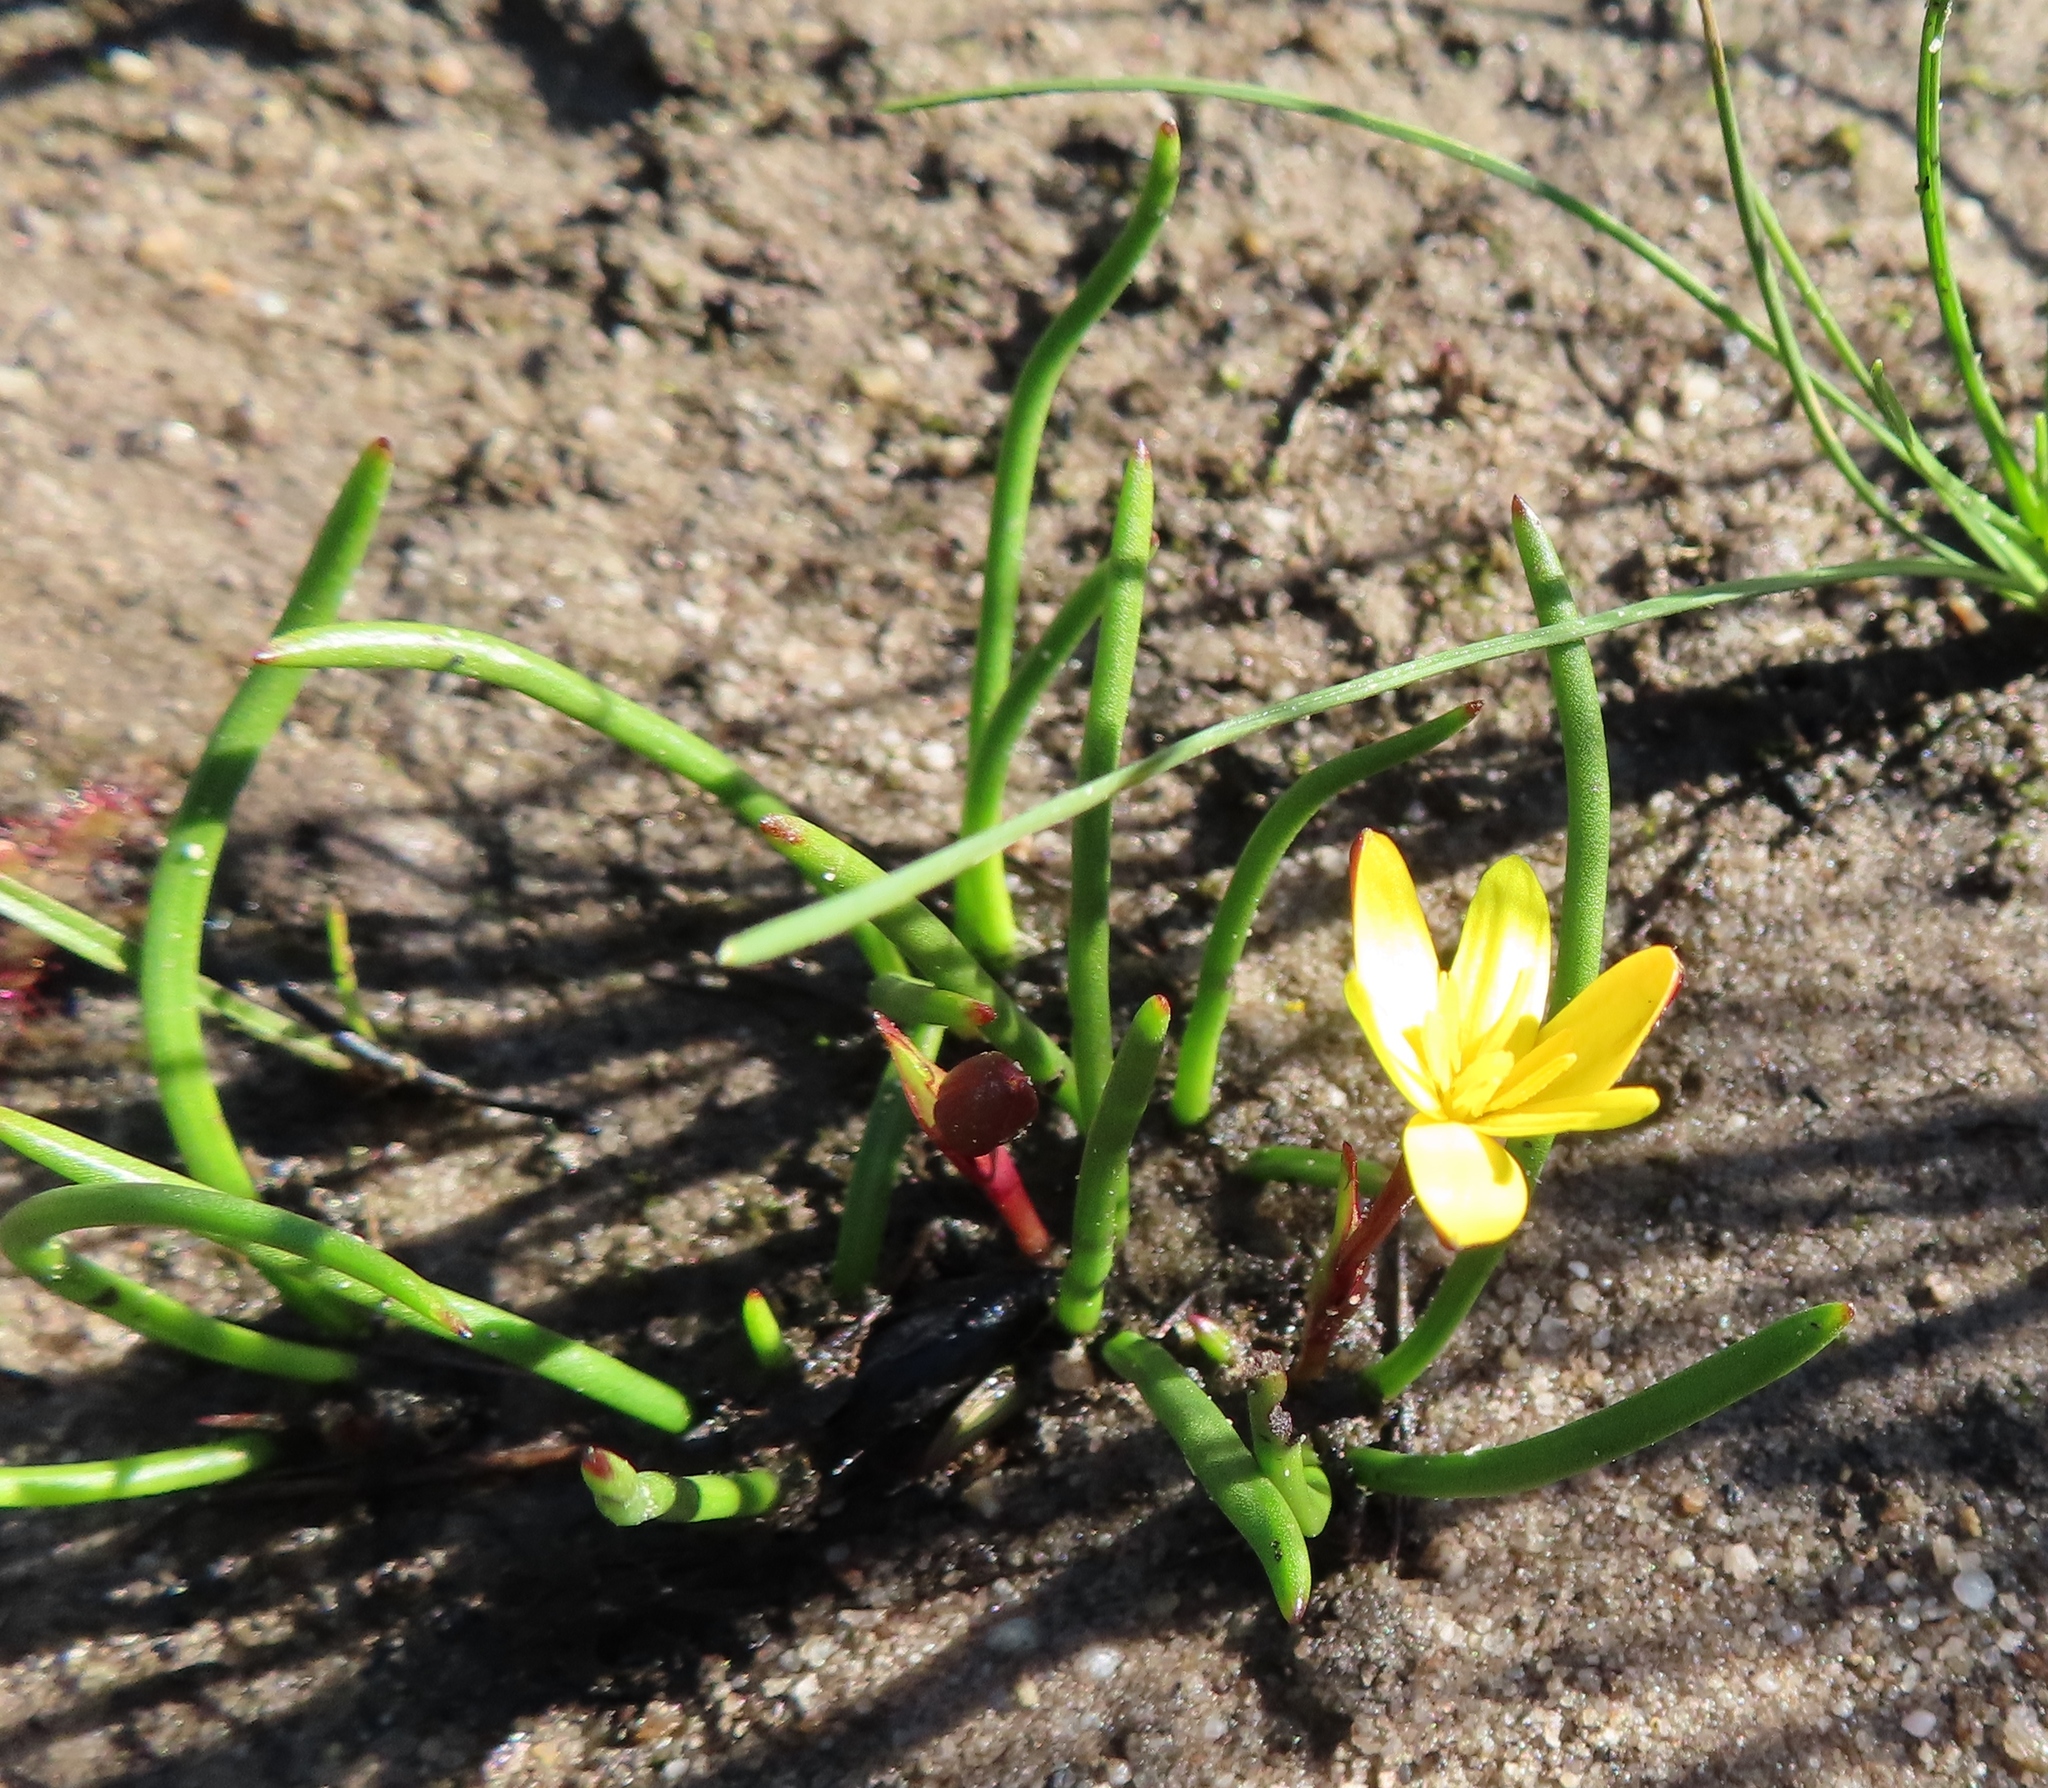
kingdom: Plantae
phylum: Tracheophyta
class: Liliopsida
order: Asparagales
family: Hypoxidaceae
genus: Pauridia
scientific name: Pauridia affinis
